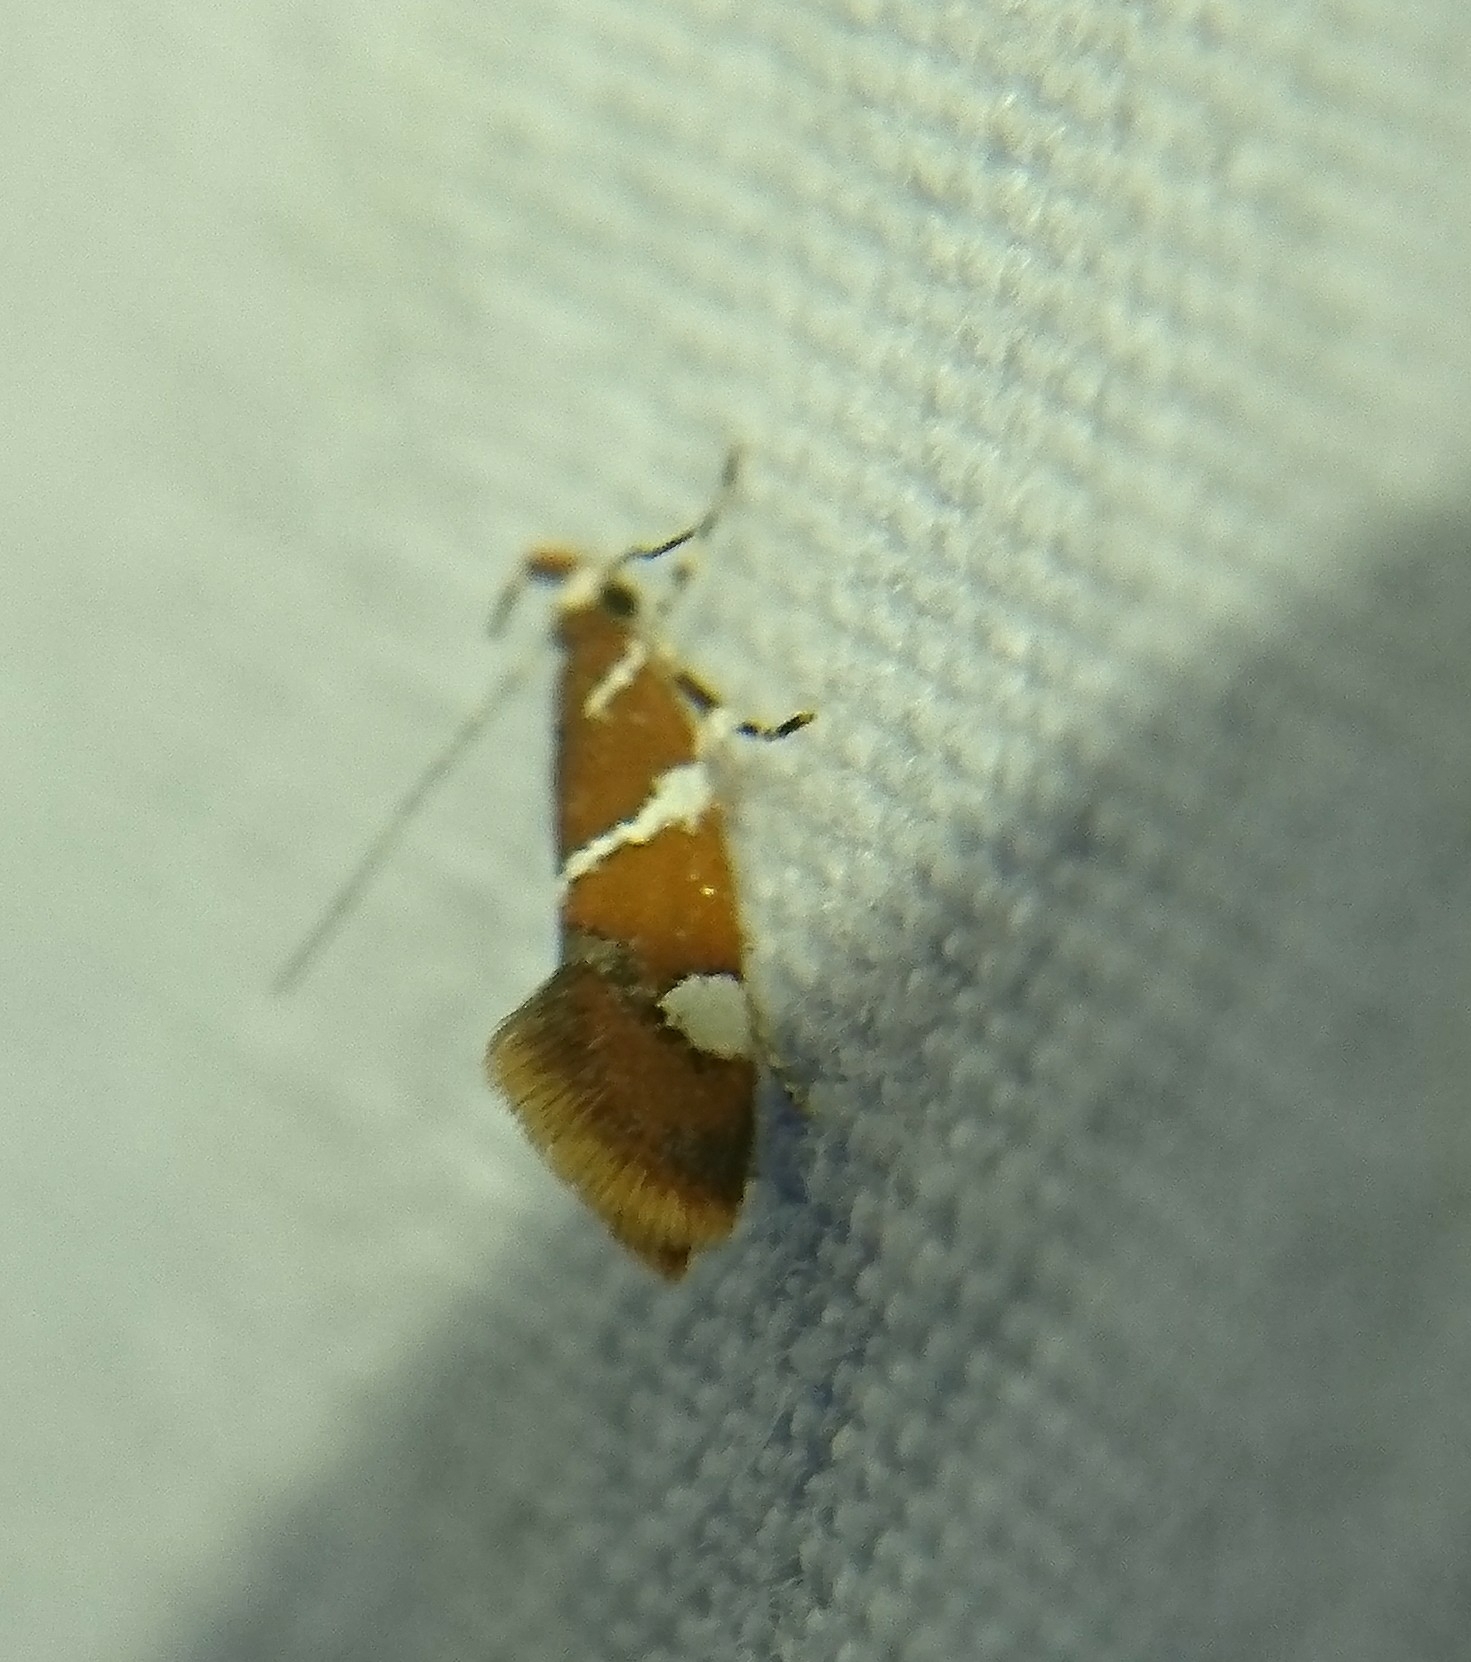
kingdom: Animalia
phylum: Arthropoda
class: Insecta
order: Lepidoptera
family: Oecophoridae
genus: Promalactis
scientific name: Promalactis suzukiella
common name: Moth
